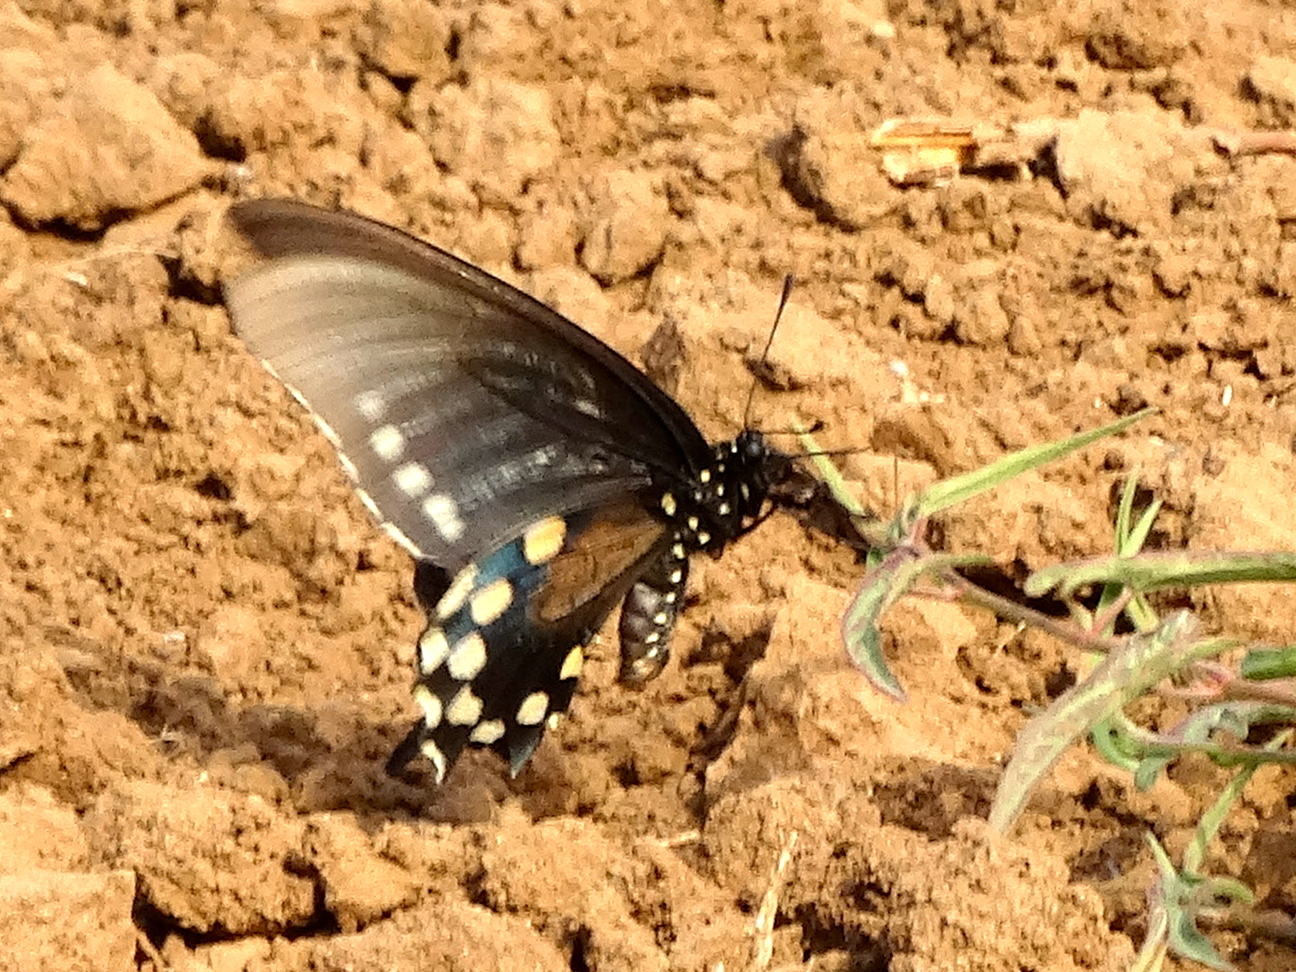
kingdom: Animalia
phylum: Arthropoda
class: Insecta
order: Lepidoptera
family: Papilionidae
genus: Battus
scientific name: Battus philenor
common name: Pipevine swallowtail
